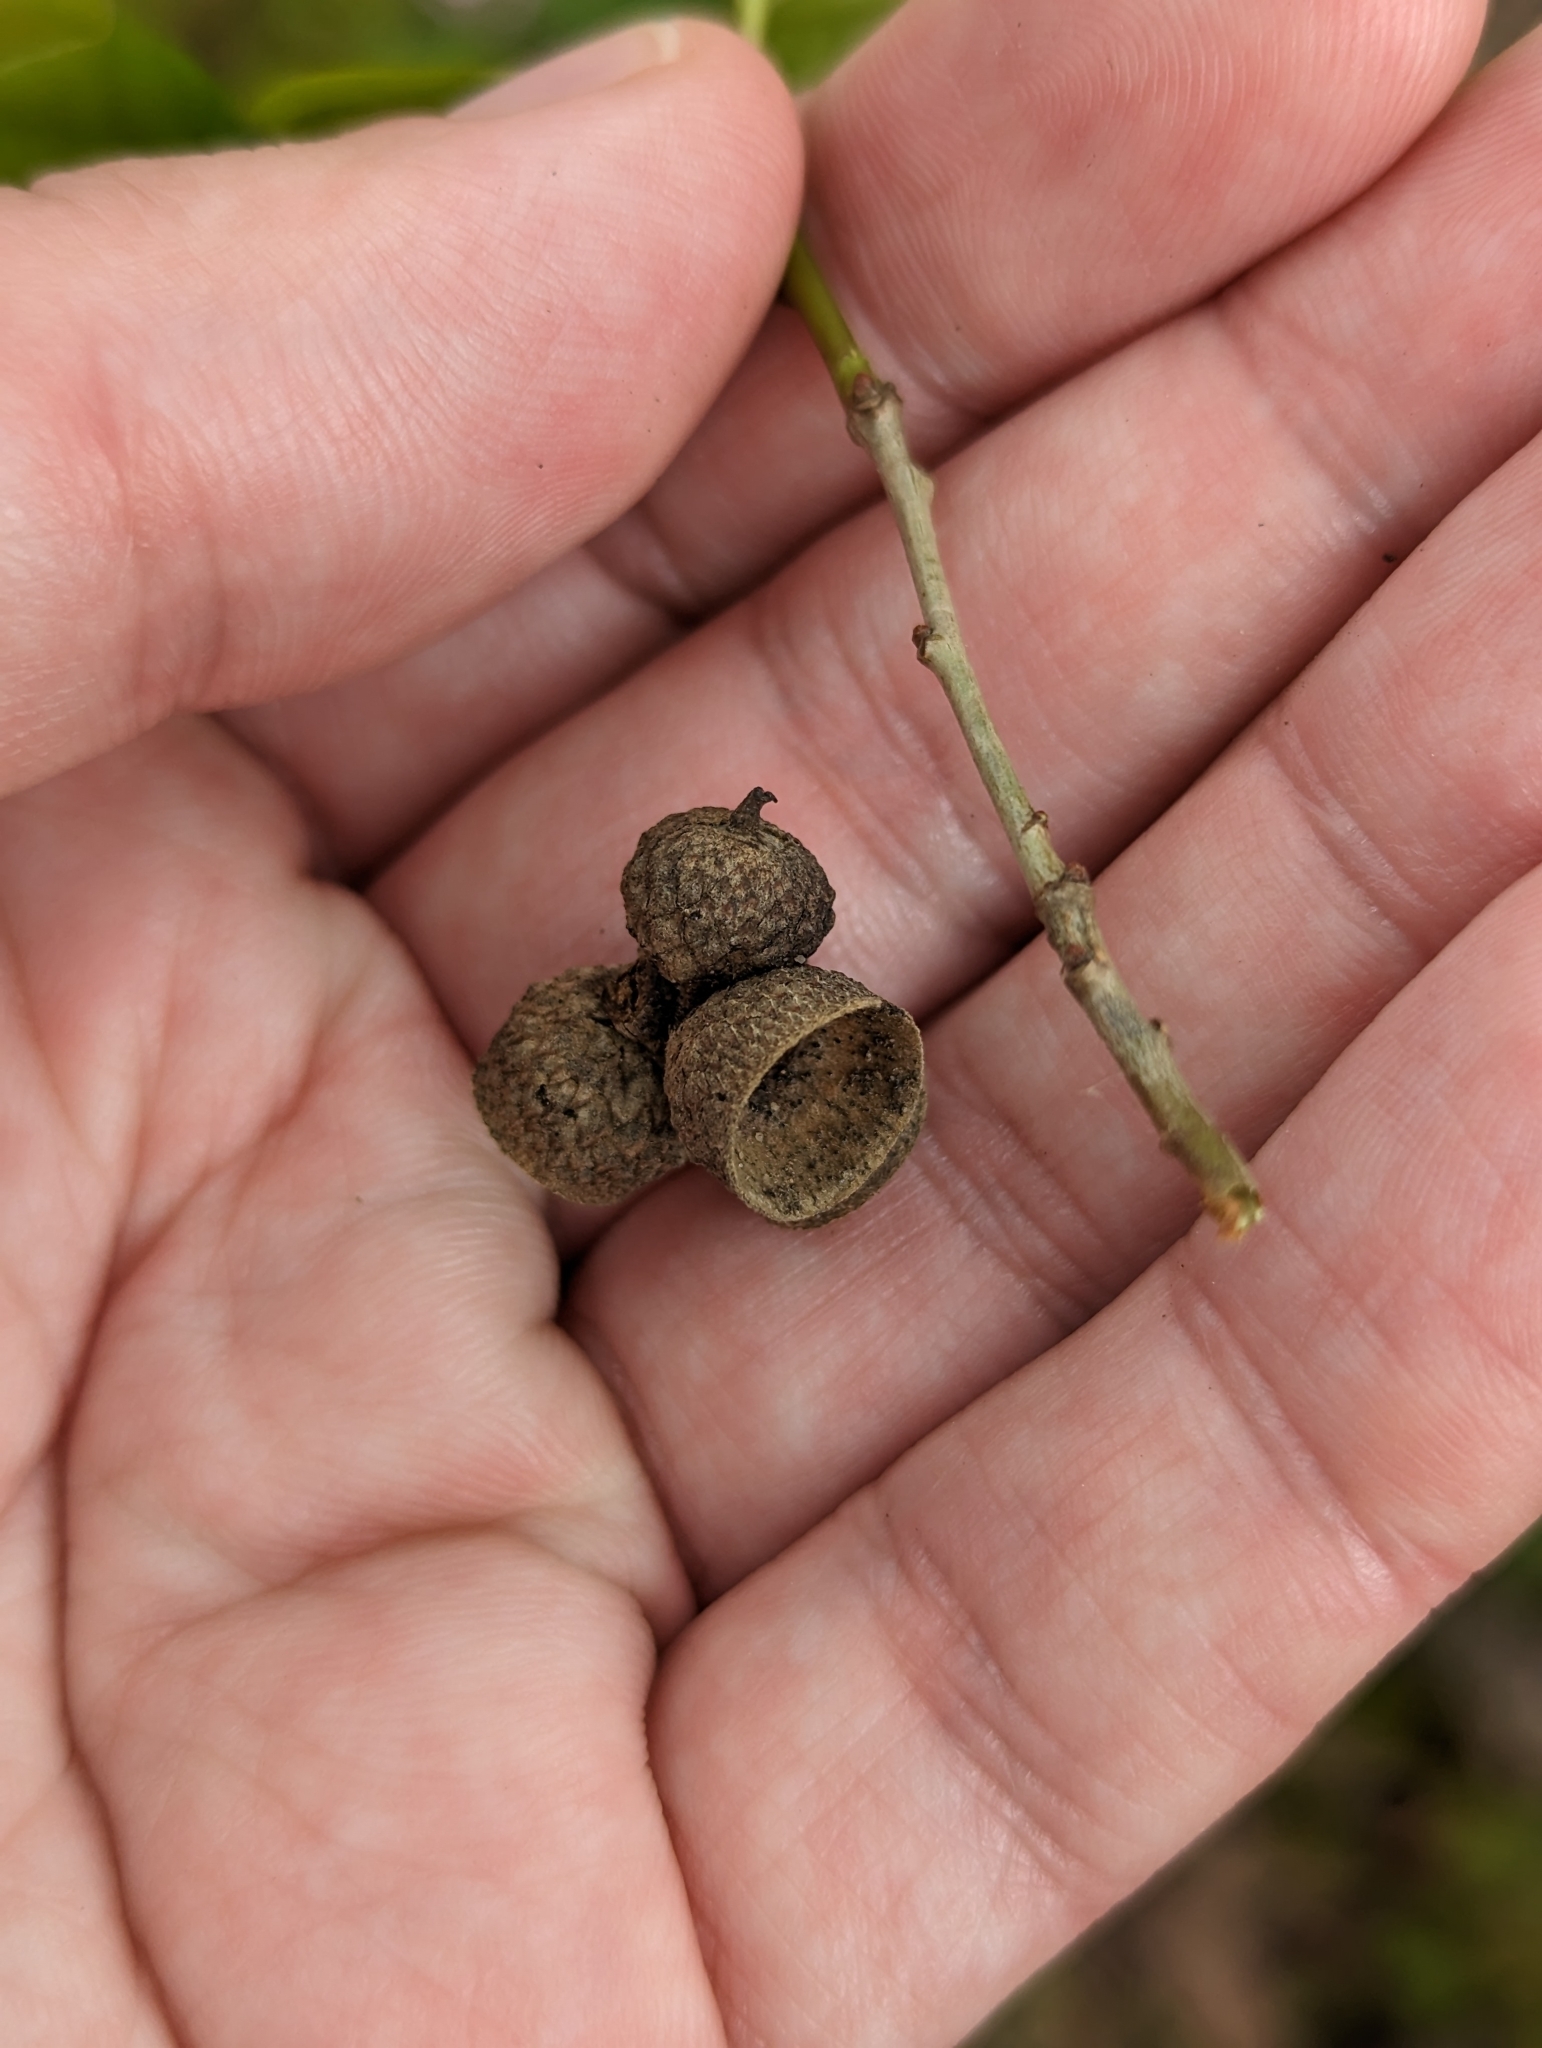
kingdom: Plantae
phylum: Tracheophyta
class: Magnoliopsida
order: Fagales
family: Fagaceae
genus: Quercus
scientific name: Quercus petraea
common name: Sessile oak
